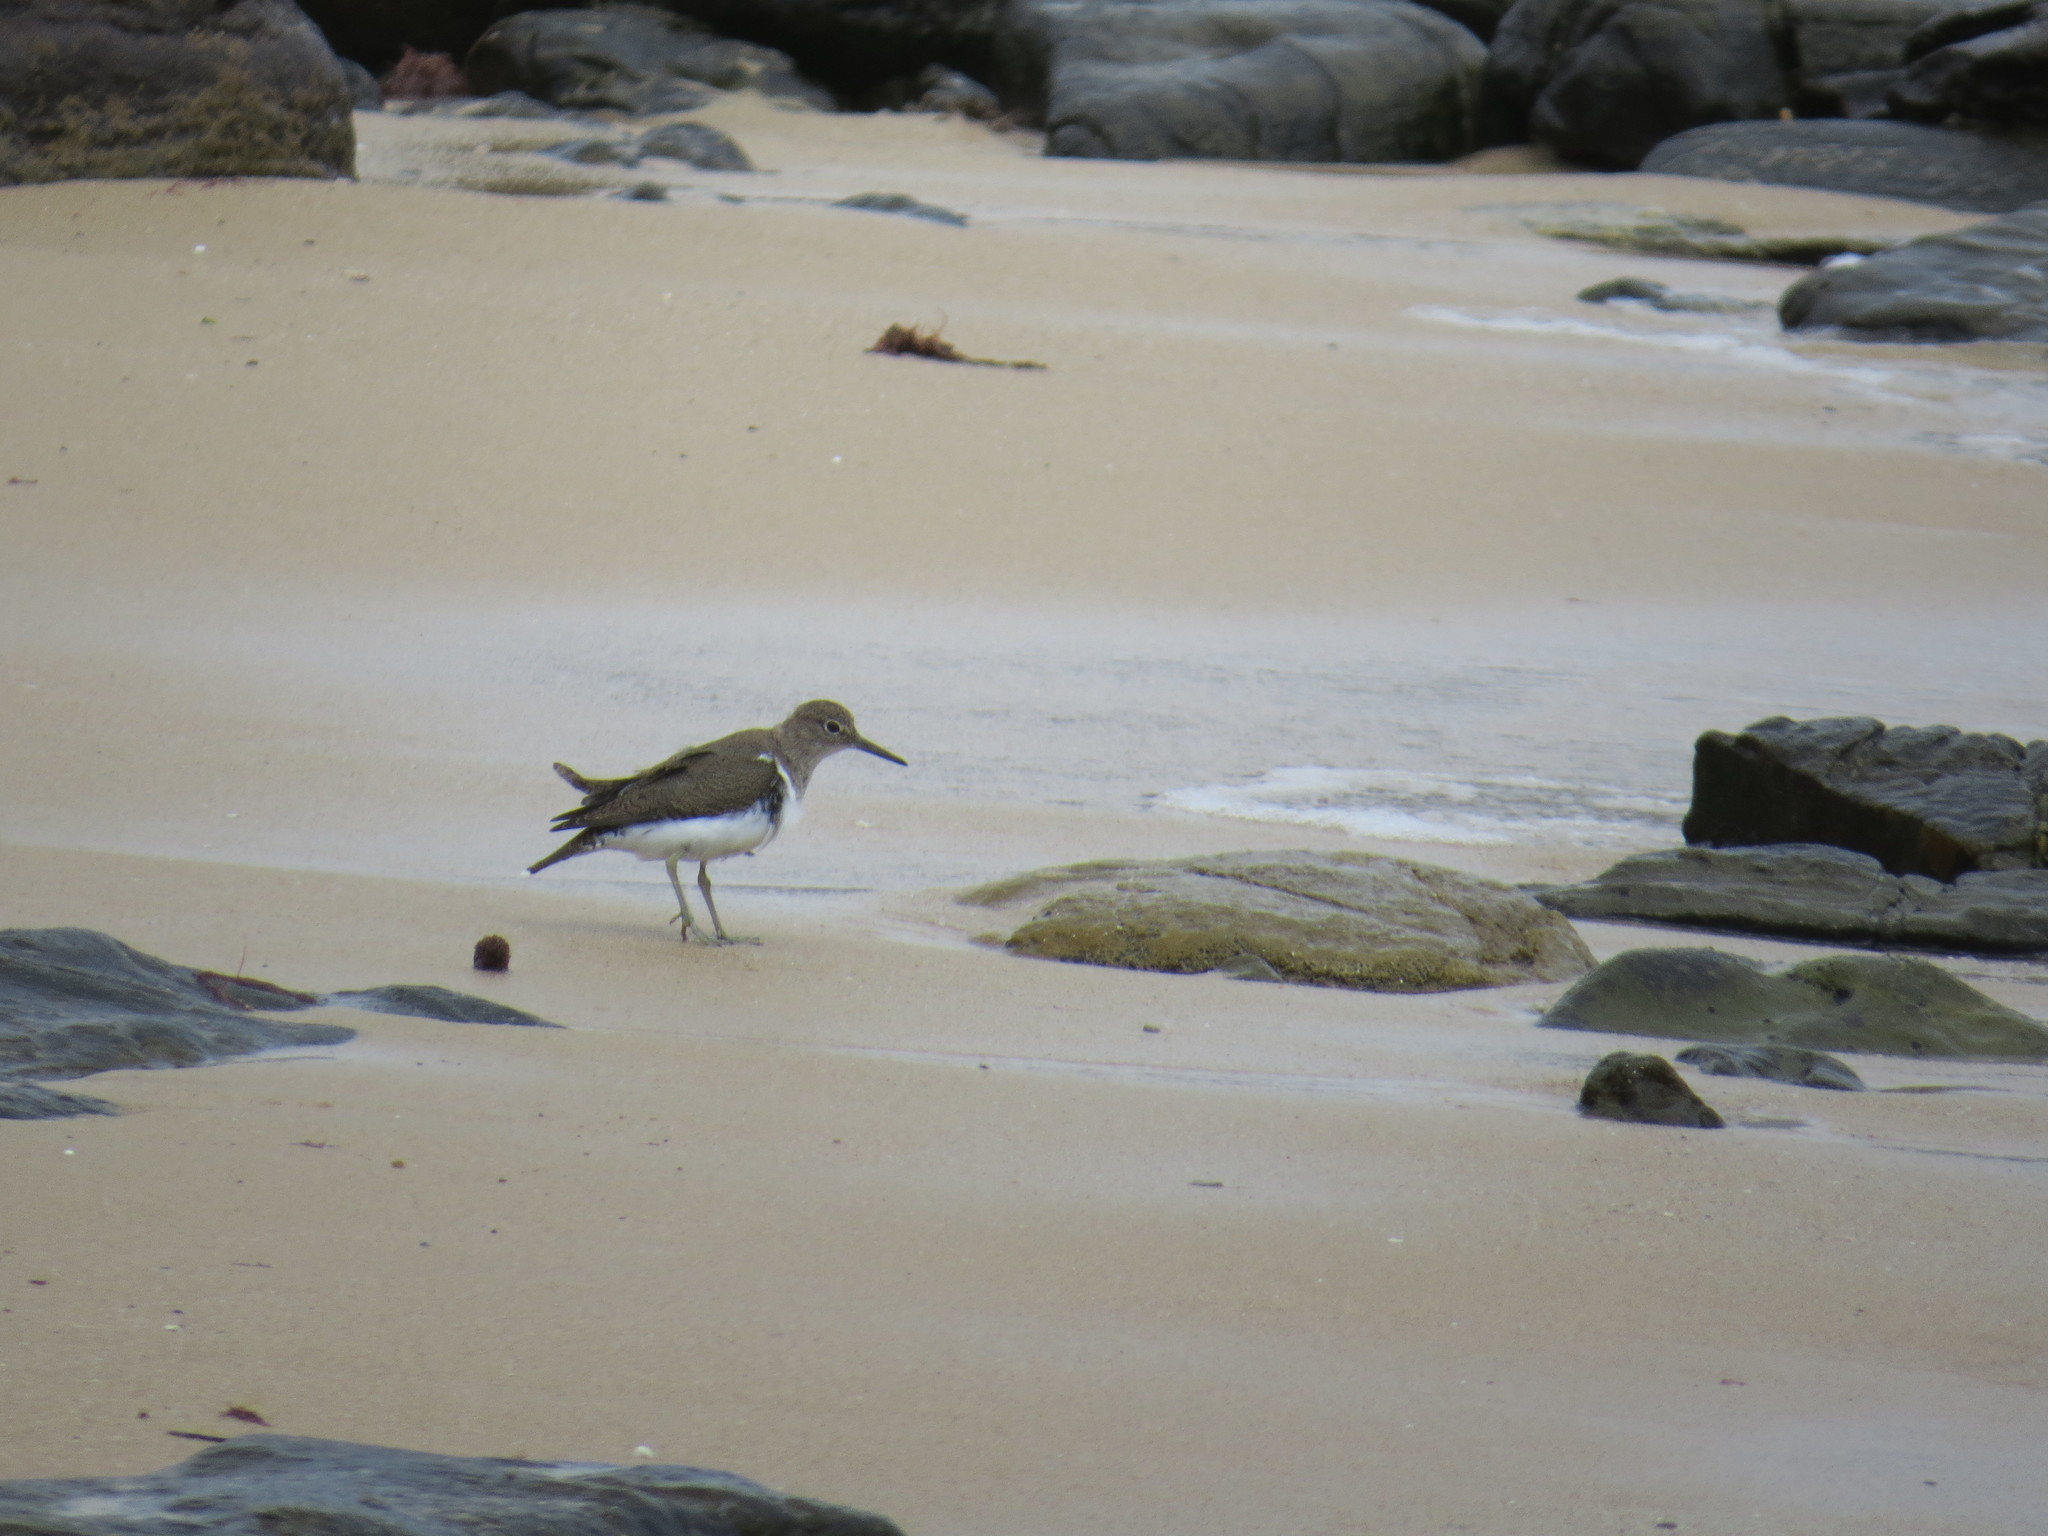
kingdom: Animalia
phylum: Chordata
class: Aves
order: Charadriiformes
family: Scolopacidae
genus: Actitis
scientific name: Actitis hypoleucos
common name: Common sandpiper
